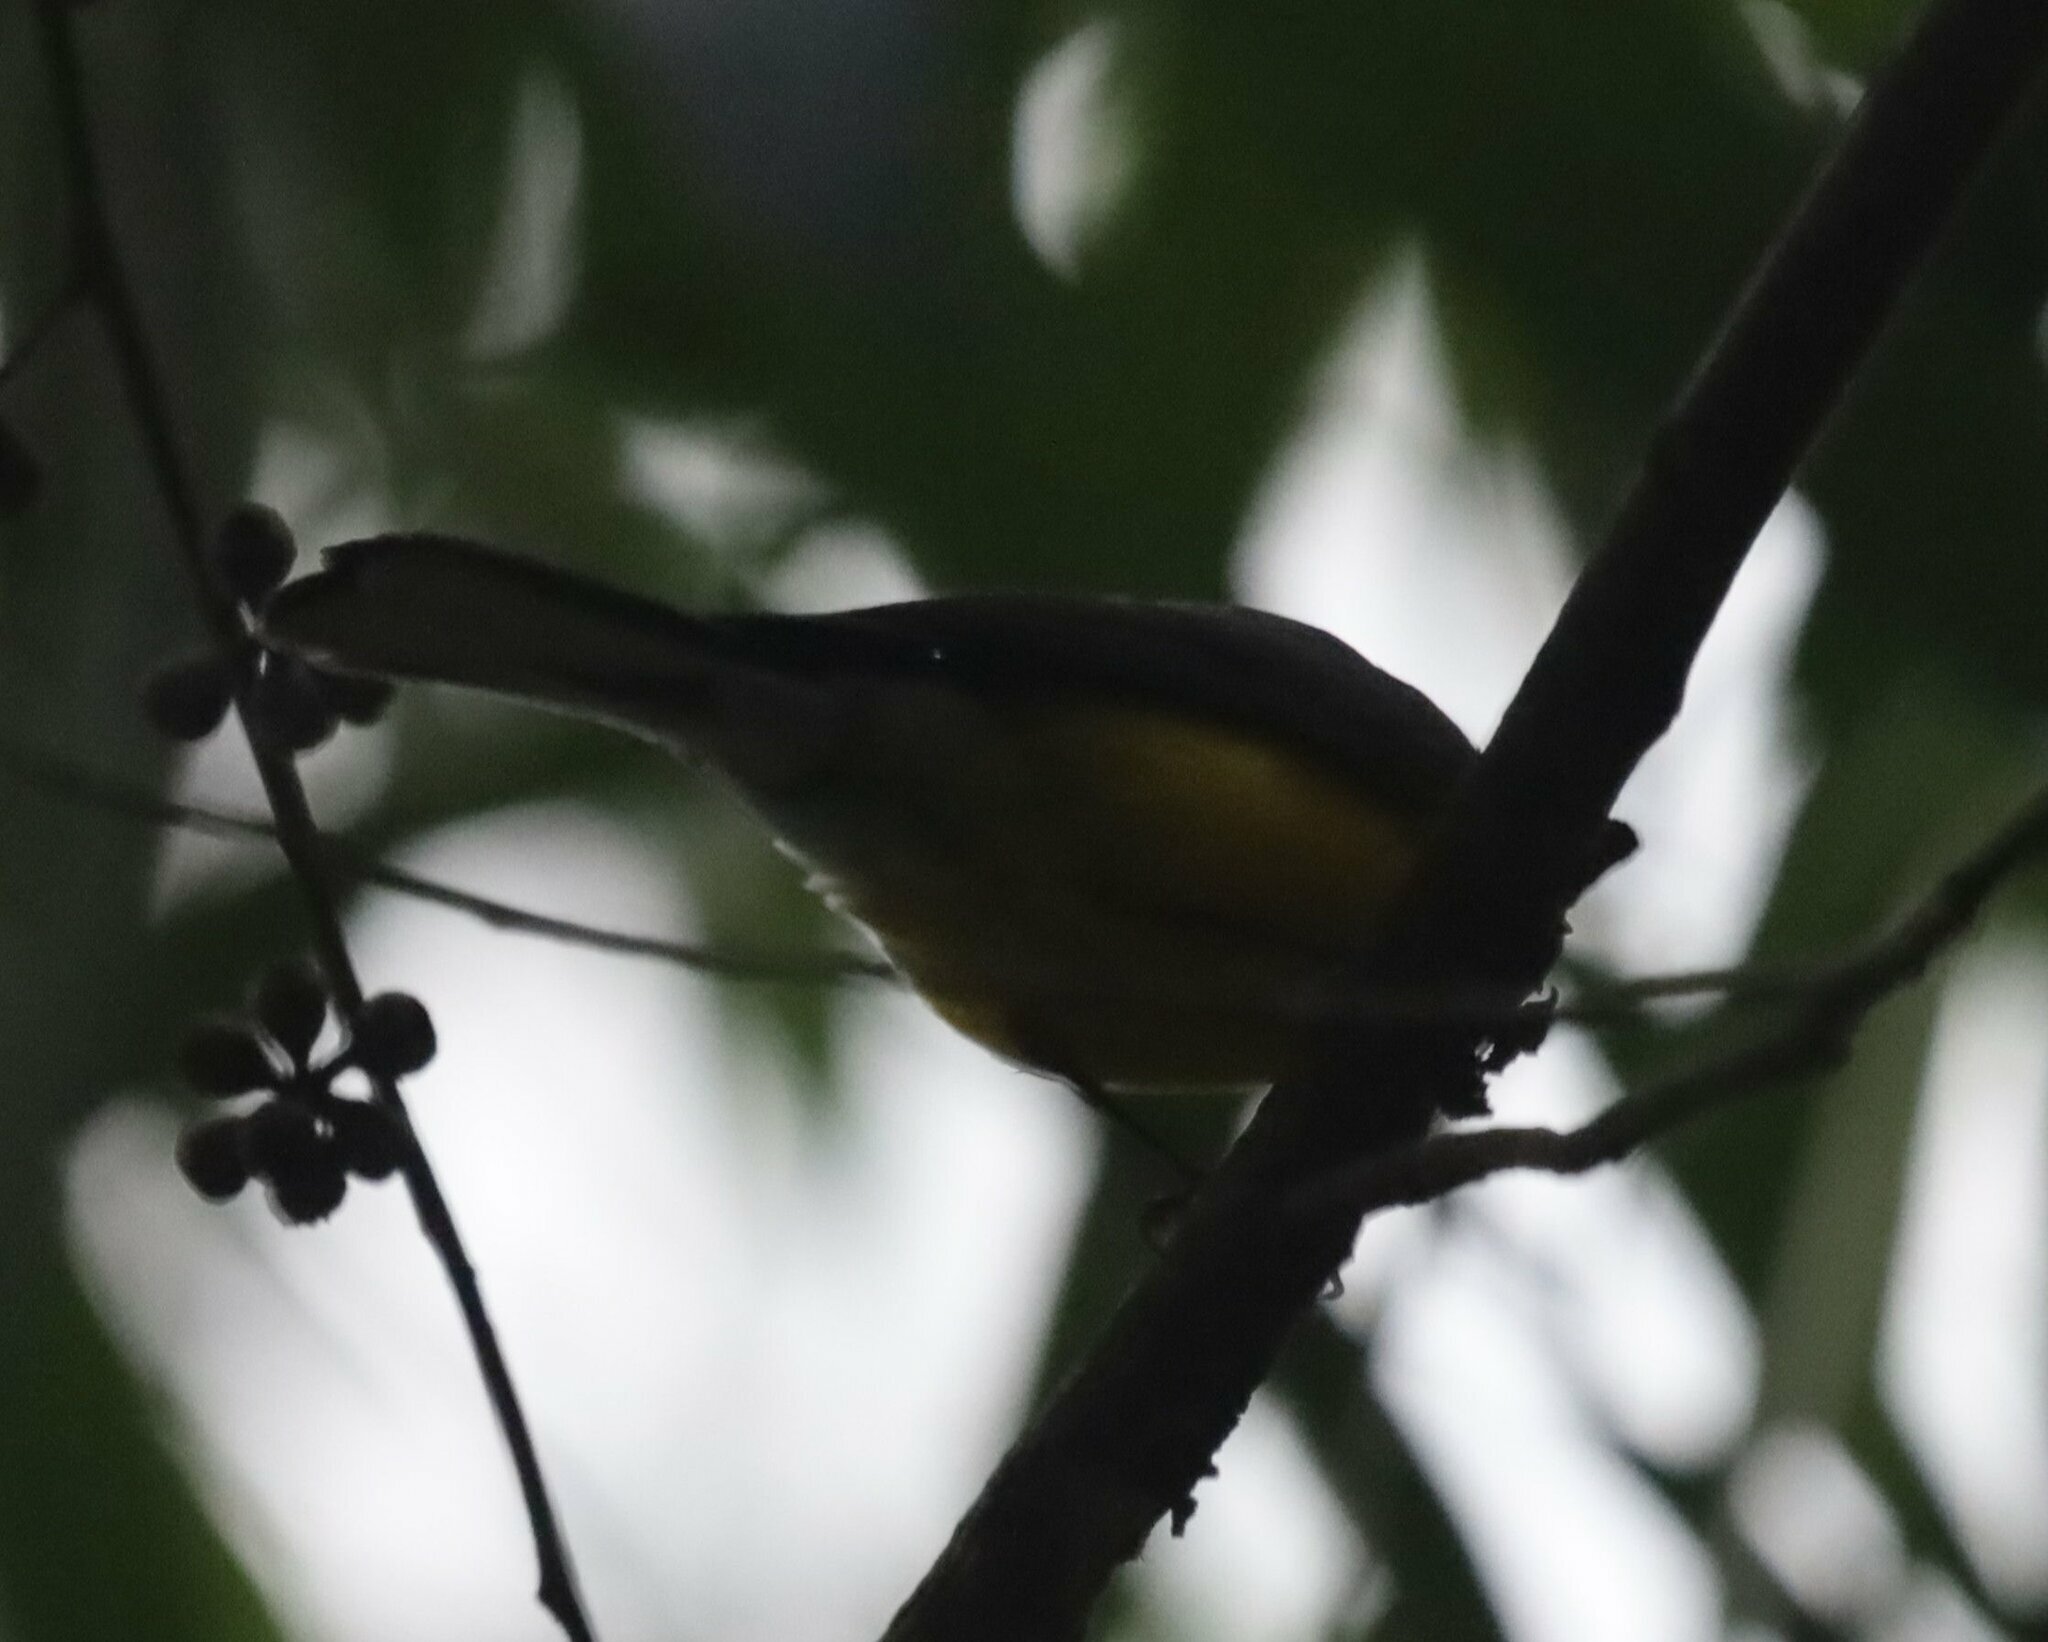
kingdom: Animalia
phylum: Chordata
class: Aves
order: Passeriformes
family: Parulidae
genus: Myioborus
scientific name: Myioborus miniatus
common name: Slate-throated redstart
